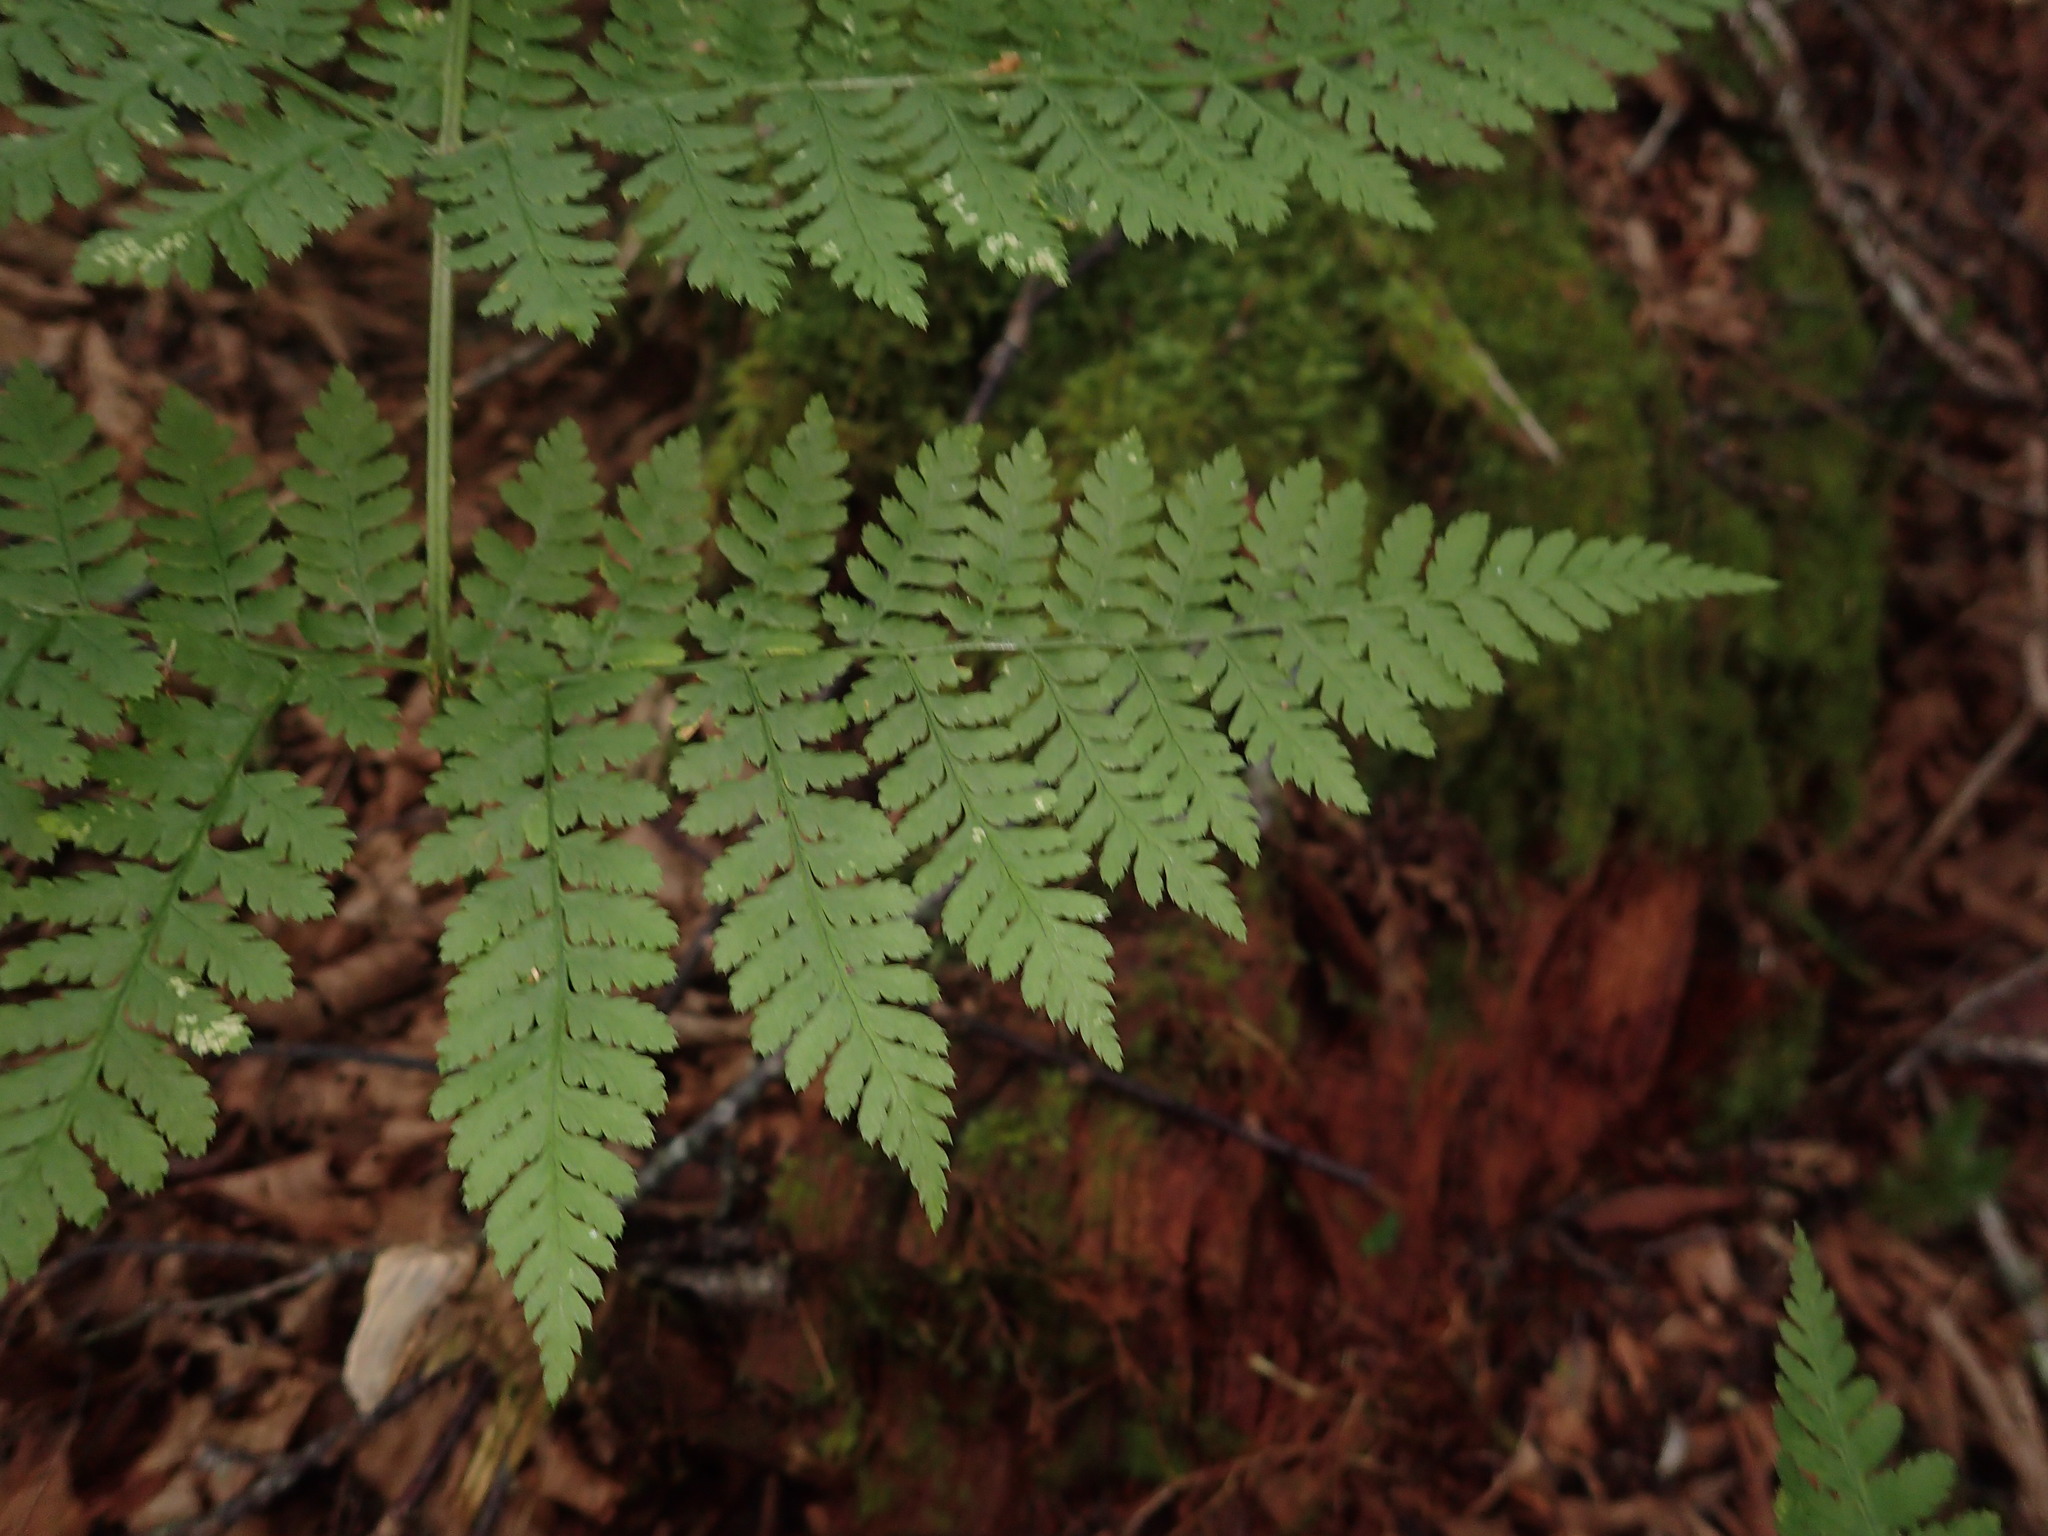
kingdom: Plantae
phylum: Tracheophyta
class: Polypodiopsida
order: Polypodiales
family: Dryopteridaceae
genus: Dryopteris
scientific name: Dryopteris campyloptera
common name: Mountain wood fern
